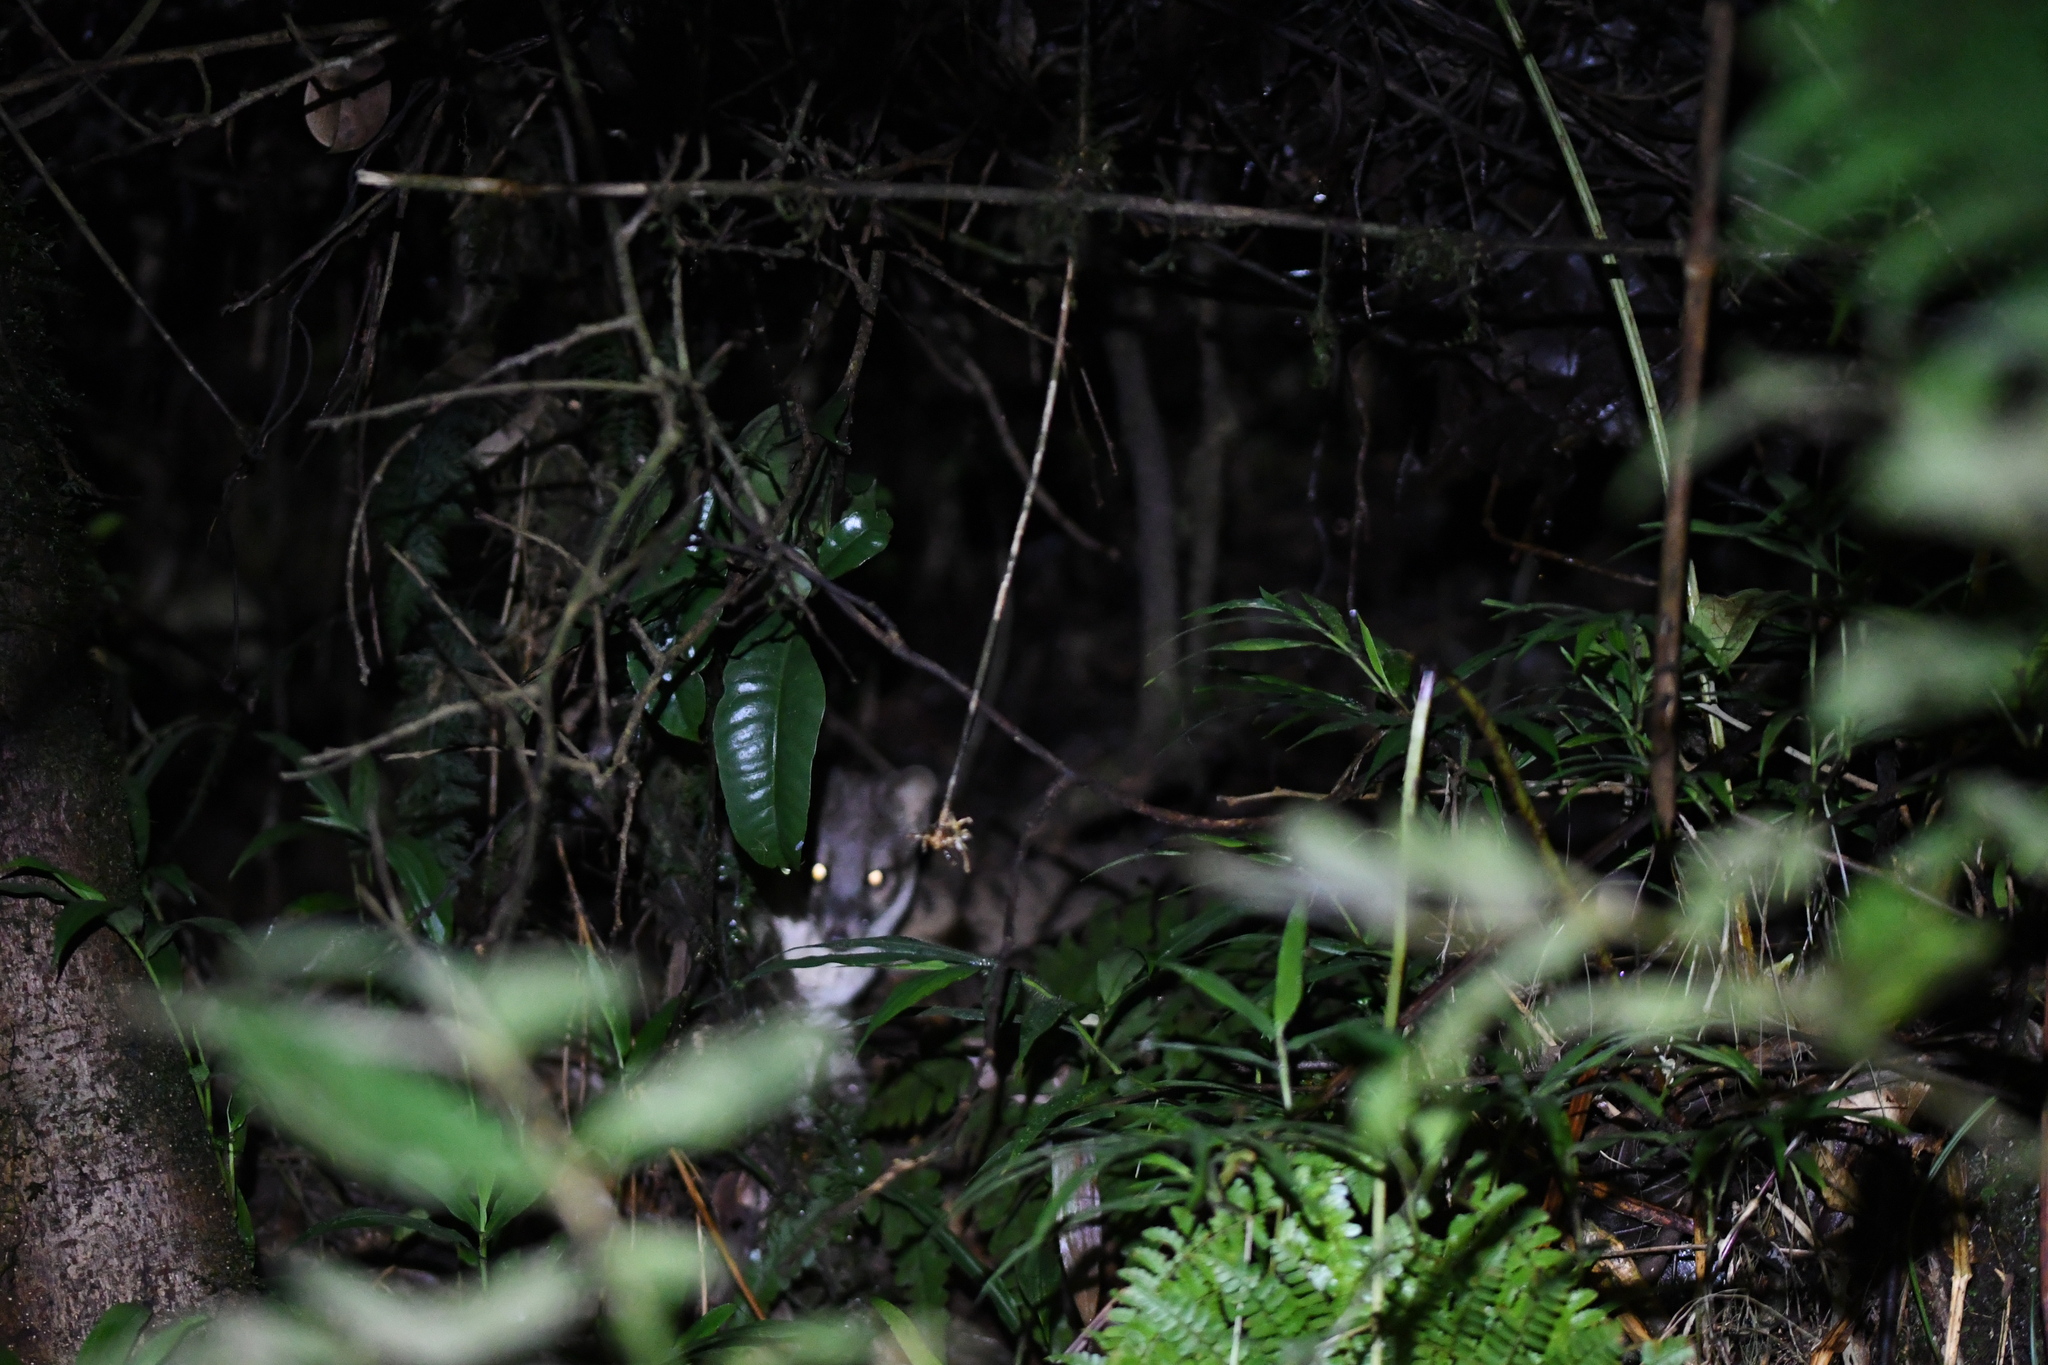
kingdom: Animalia
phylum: Chordata
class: Mammalia
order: Carnivora
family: Eupleridae
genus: Fossa
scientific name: Fossa fossana
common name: Malagasy civet
